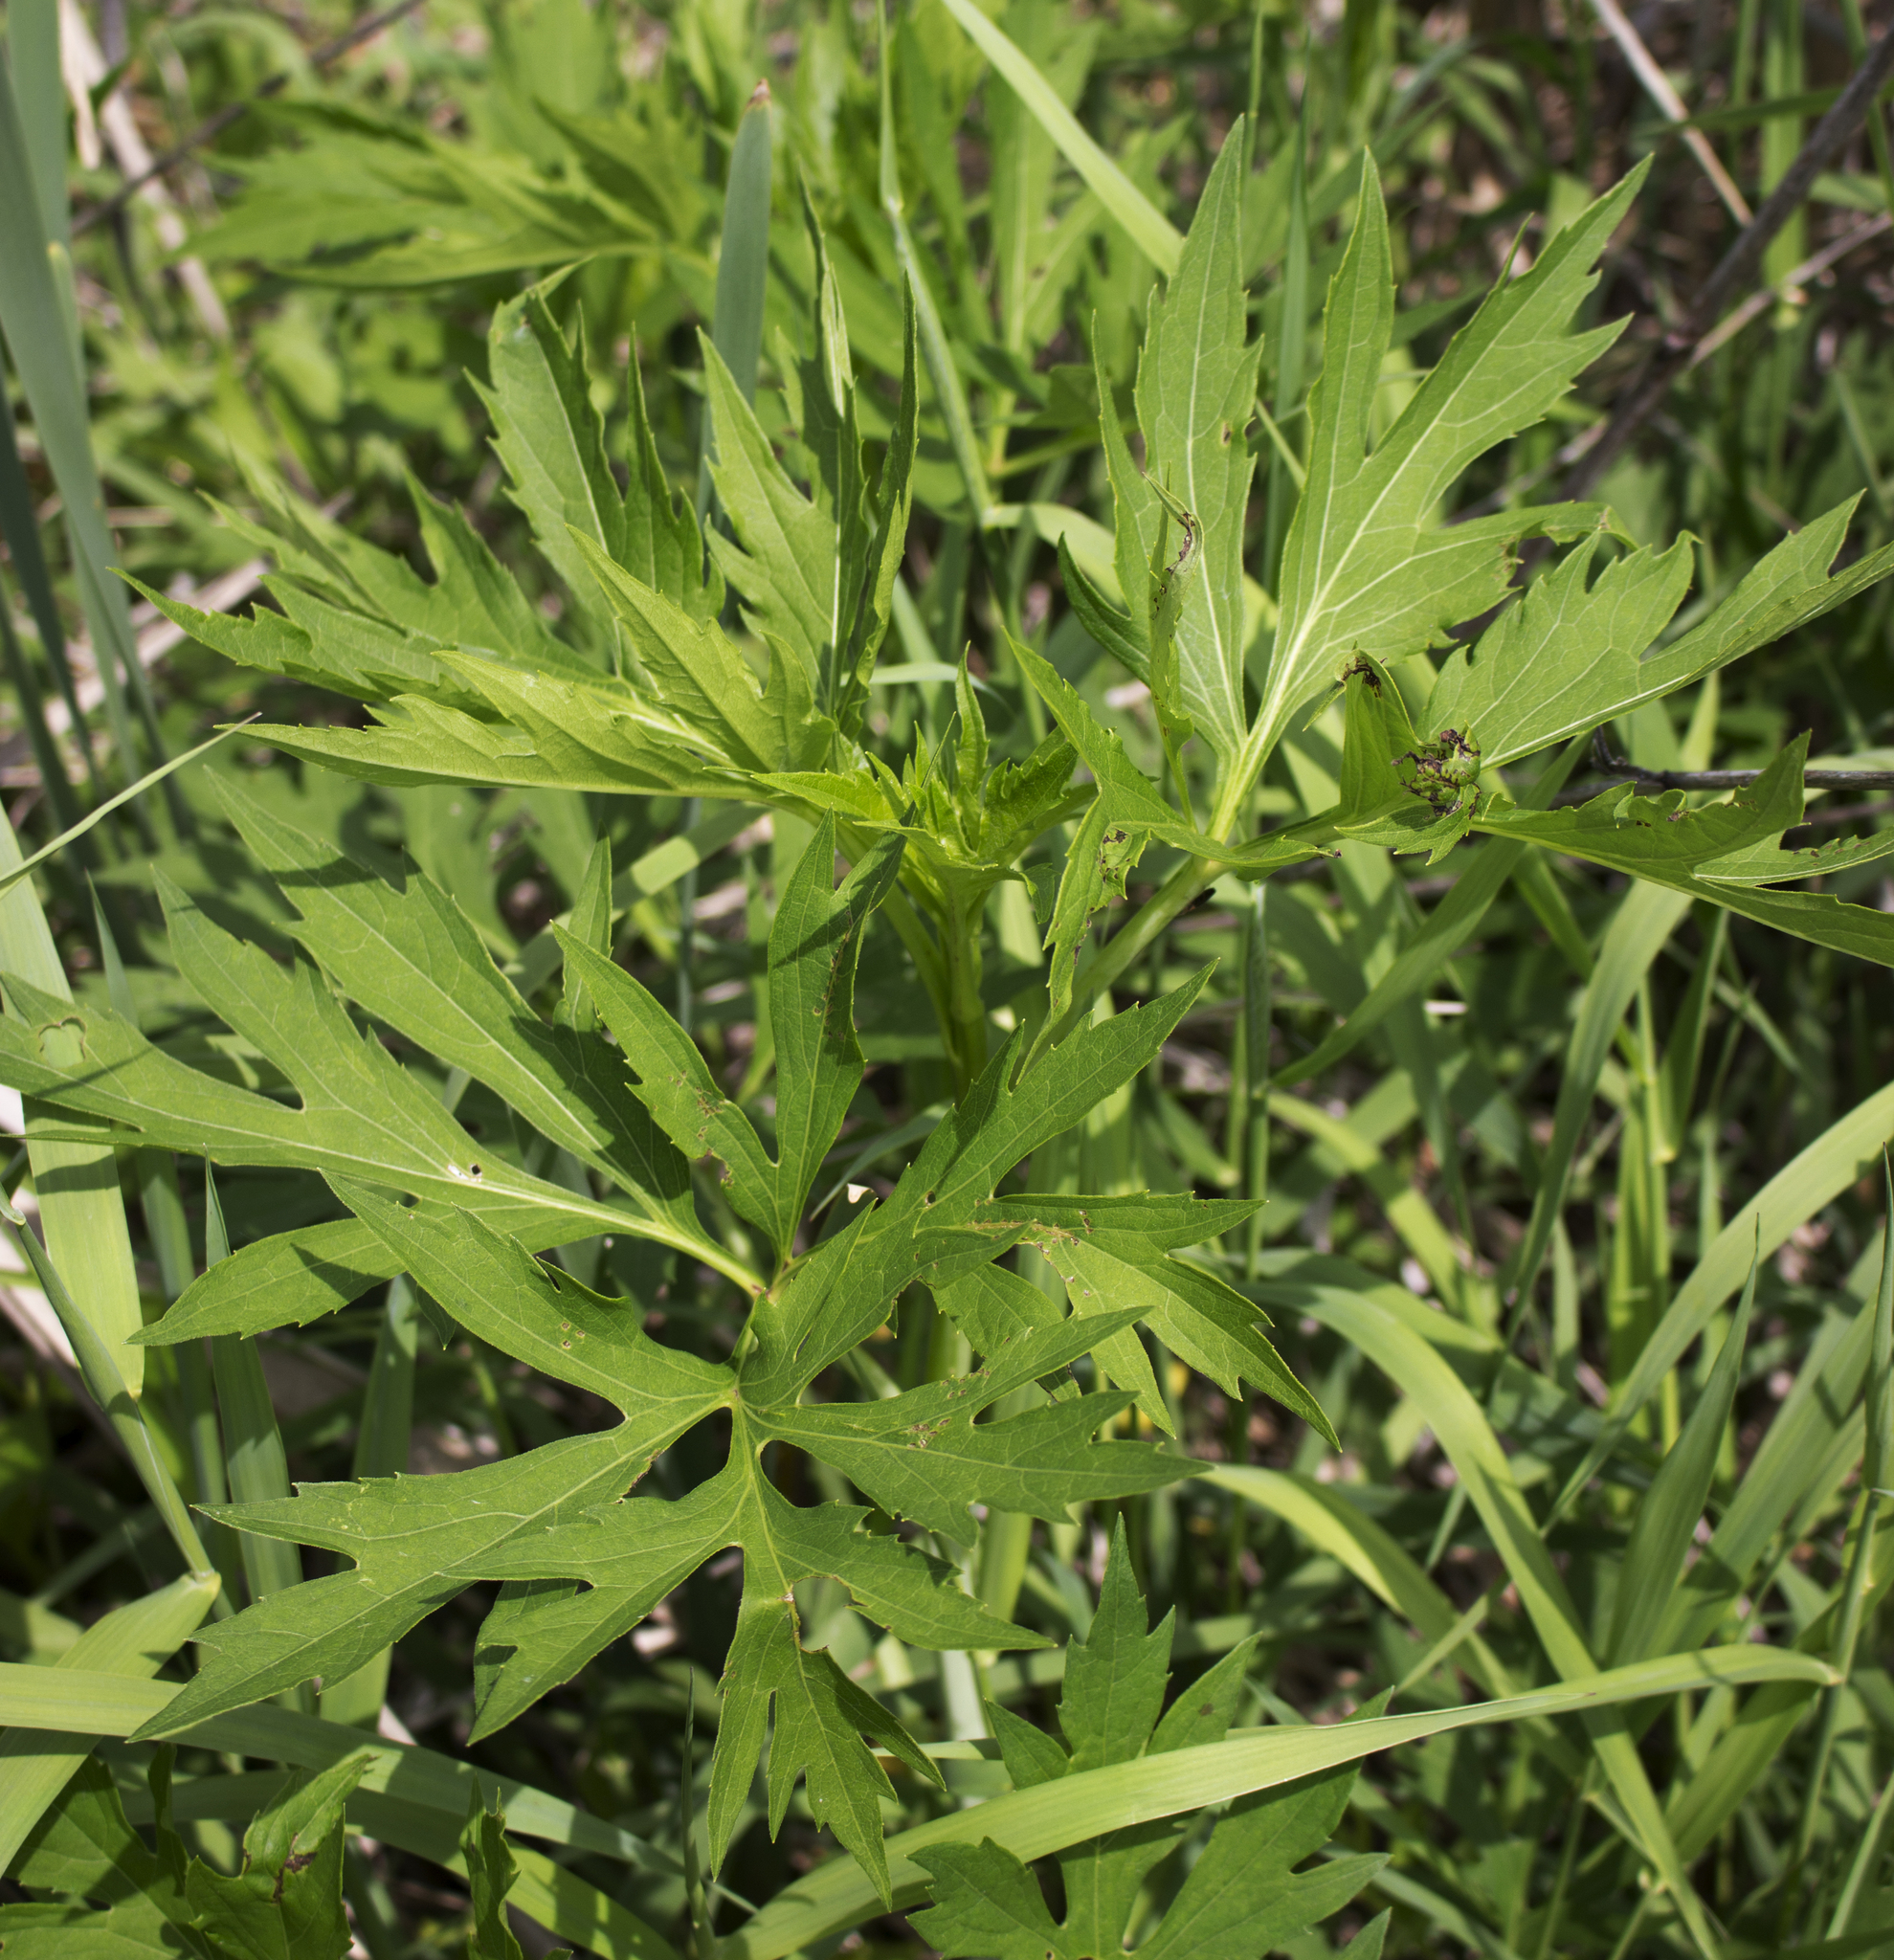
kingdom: Plantae
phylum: Tracheophyta
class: Magnoliopsida
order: Asterales
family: Asteraceae
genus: Rudbeckia
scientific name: Rudbeckia laciniata
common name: Coneflower
